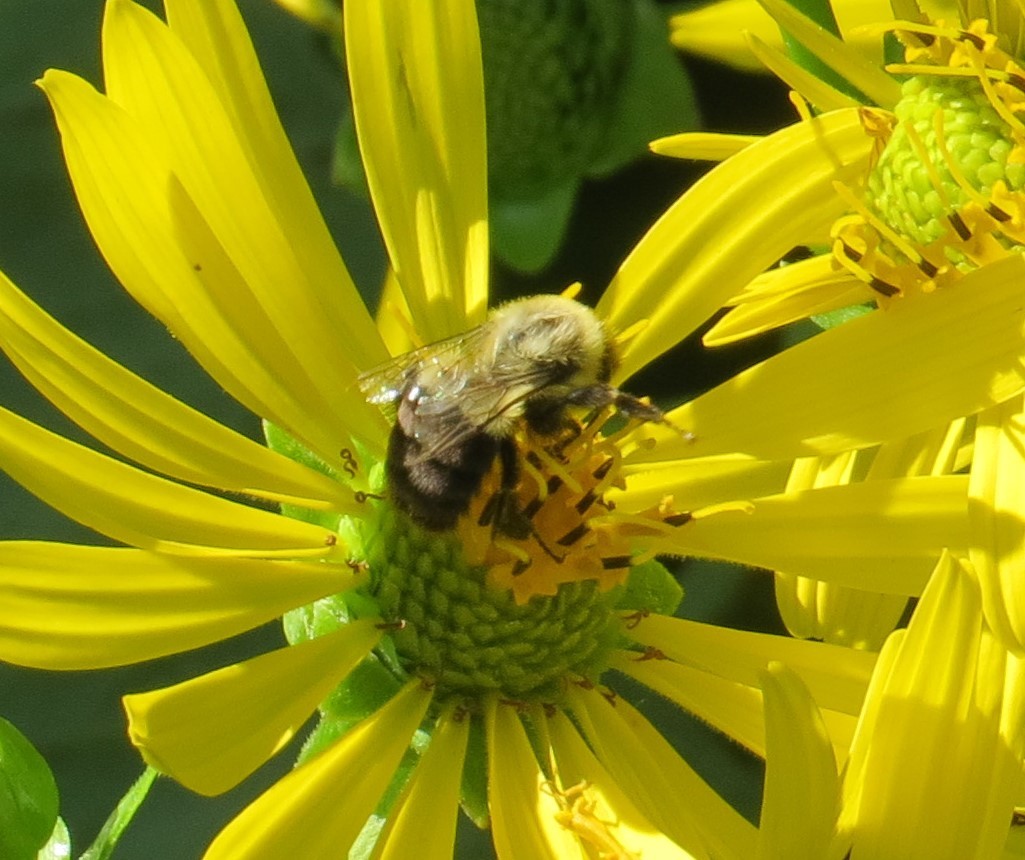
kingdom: Animalia
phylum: Arthropoda
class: Insecta
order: Hymenoptera
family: Apidae
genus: Bombus
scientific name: Bombus impatiens
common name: Common eastern bumble bee
